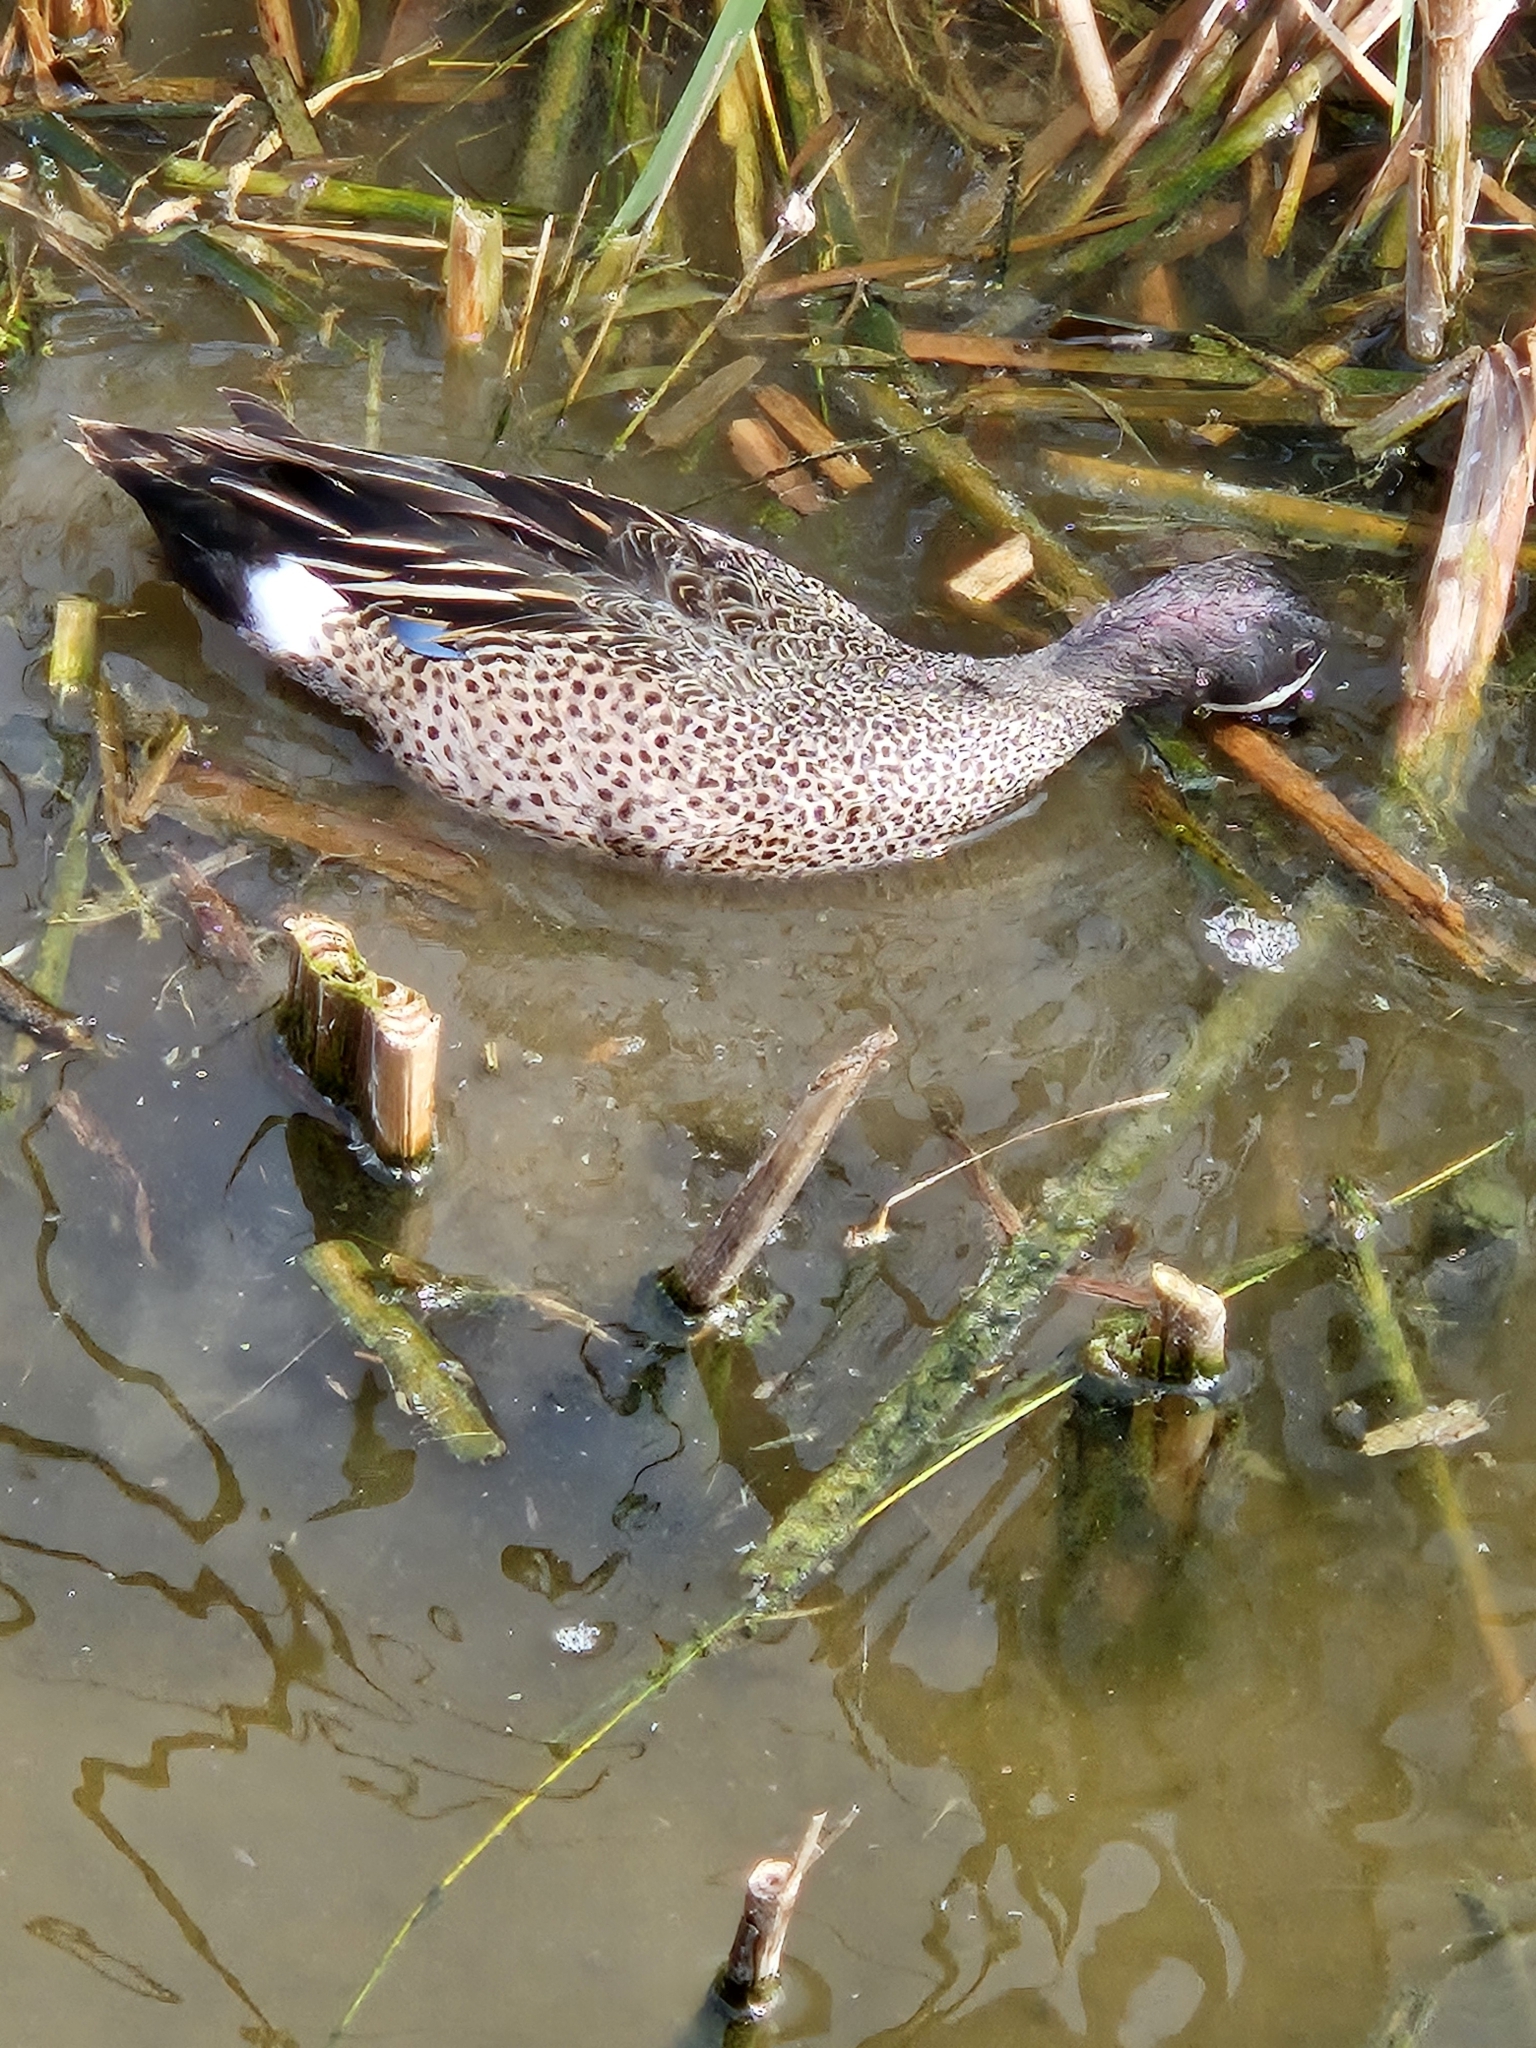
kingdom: Animalia
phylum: Chordata
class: Aves
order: Anseriformes
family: Anatidae
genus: Spatula
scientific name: Spatula discors
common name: Blue-winged teal
